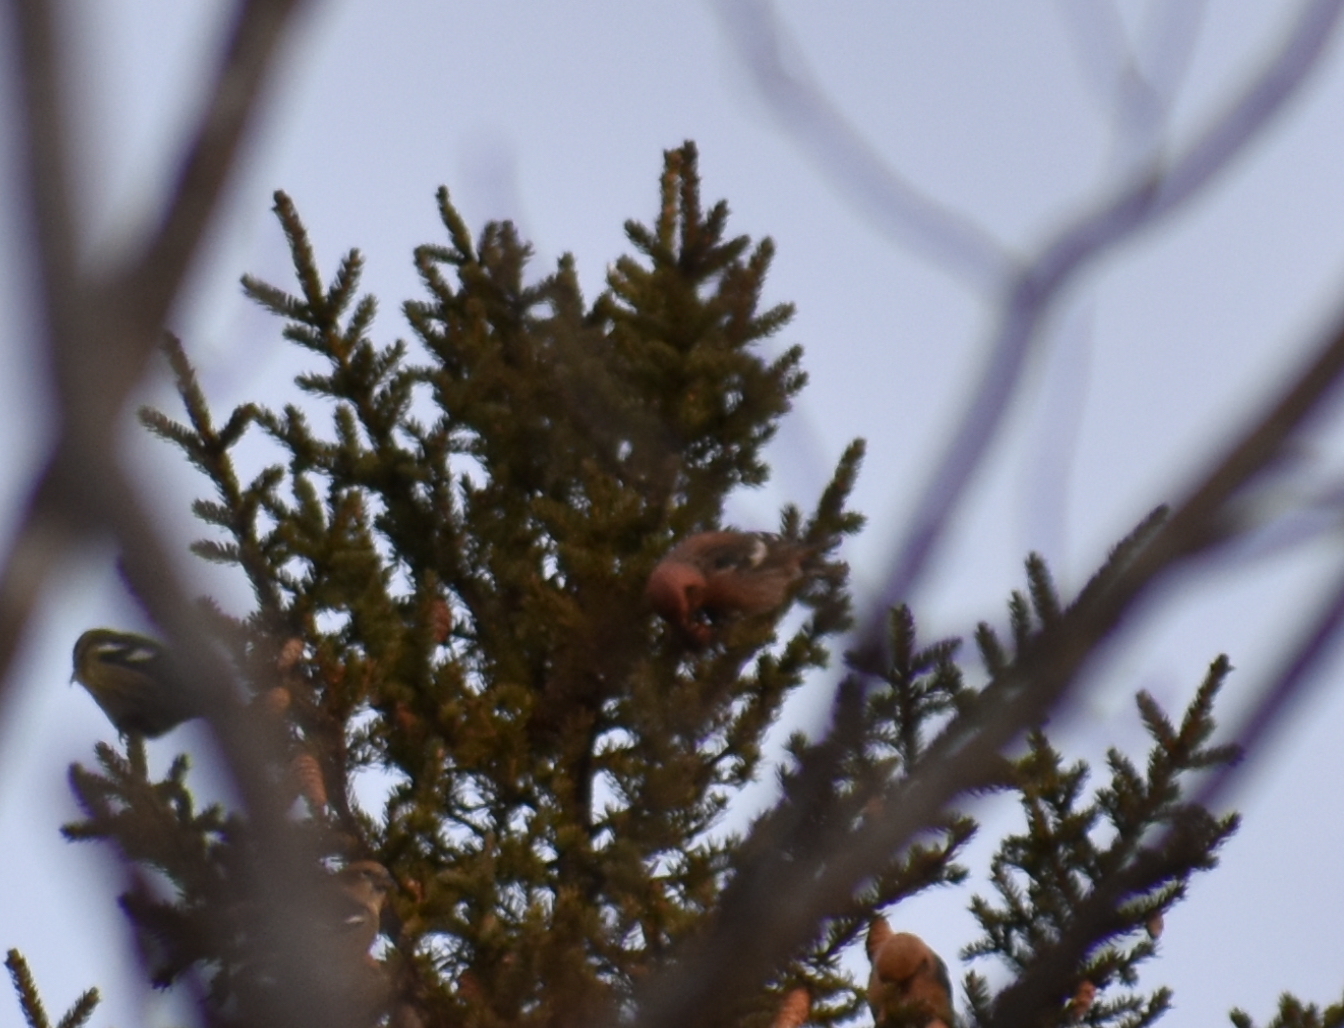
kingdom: Animalia
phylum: Chordata
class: Aves
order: Passeriformes
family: Fringillidae
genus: Loxia
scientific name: Loxia leucoptera
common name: Two-barred crossbill
